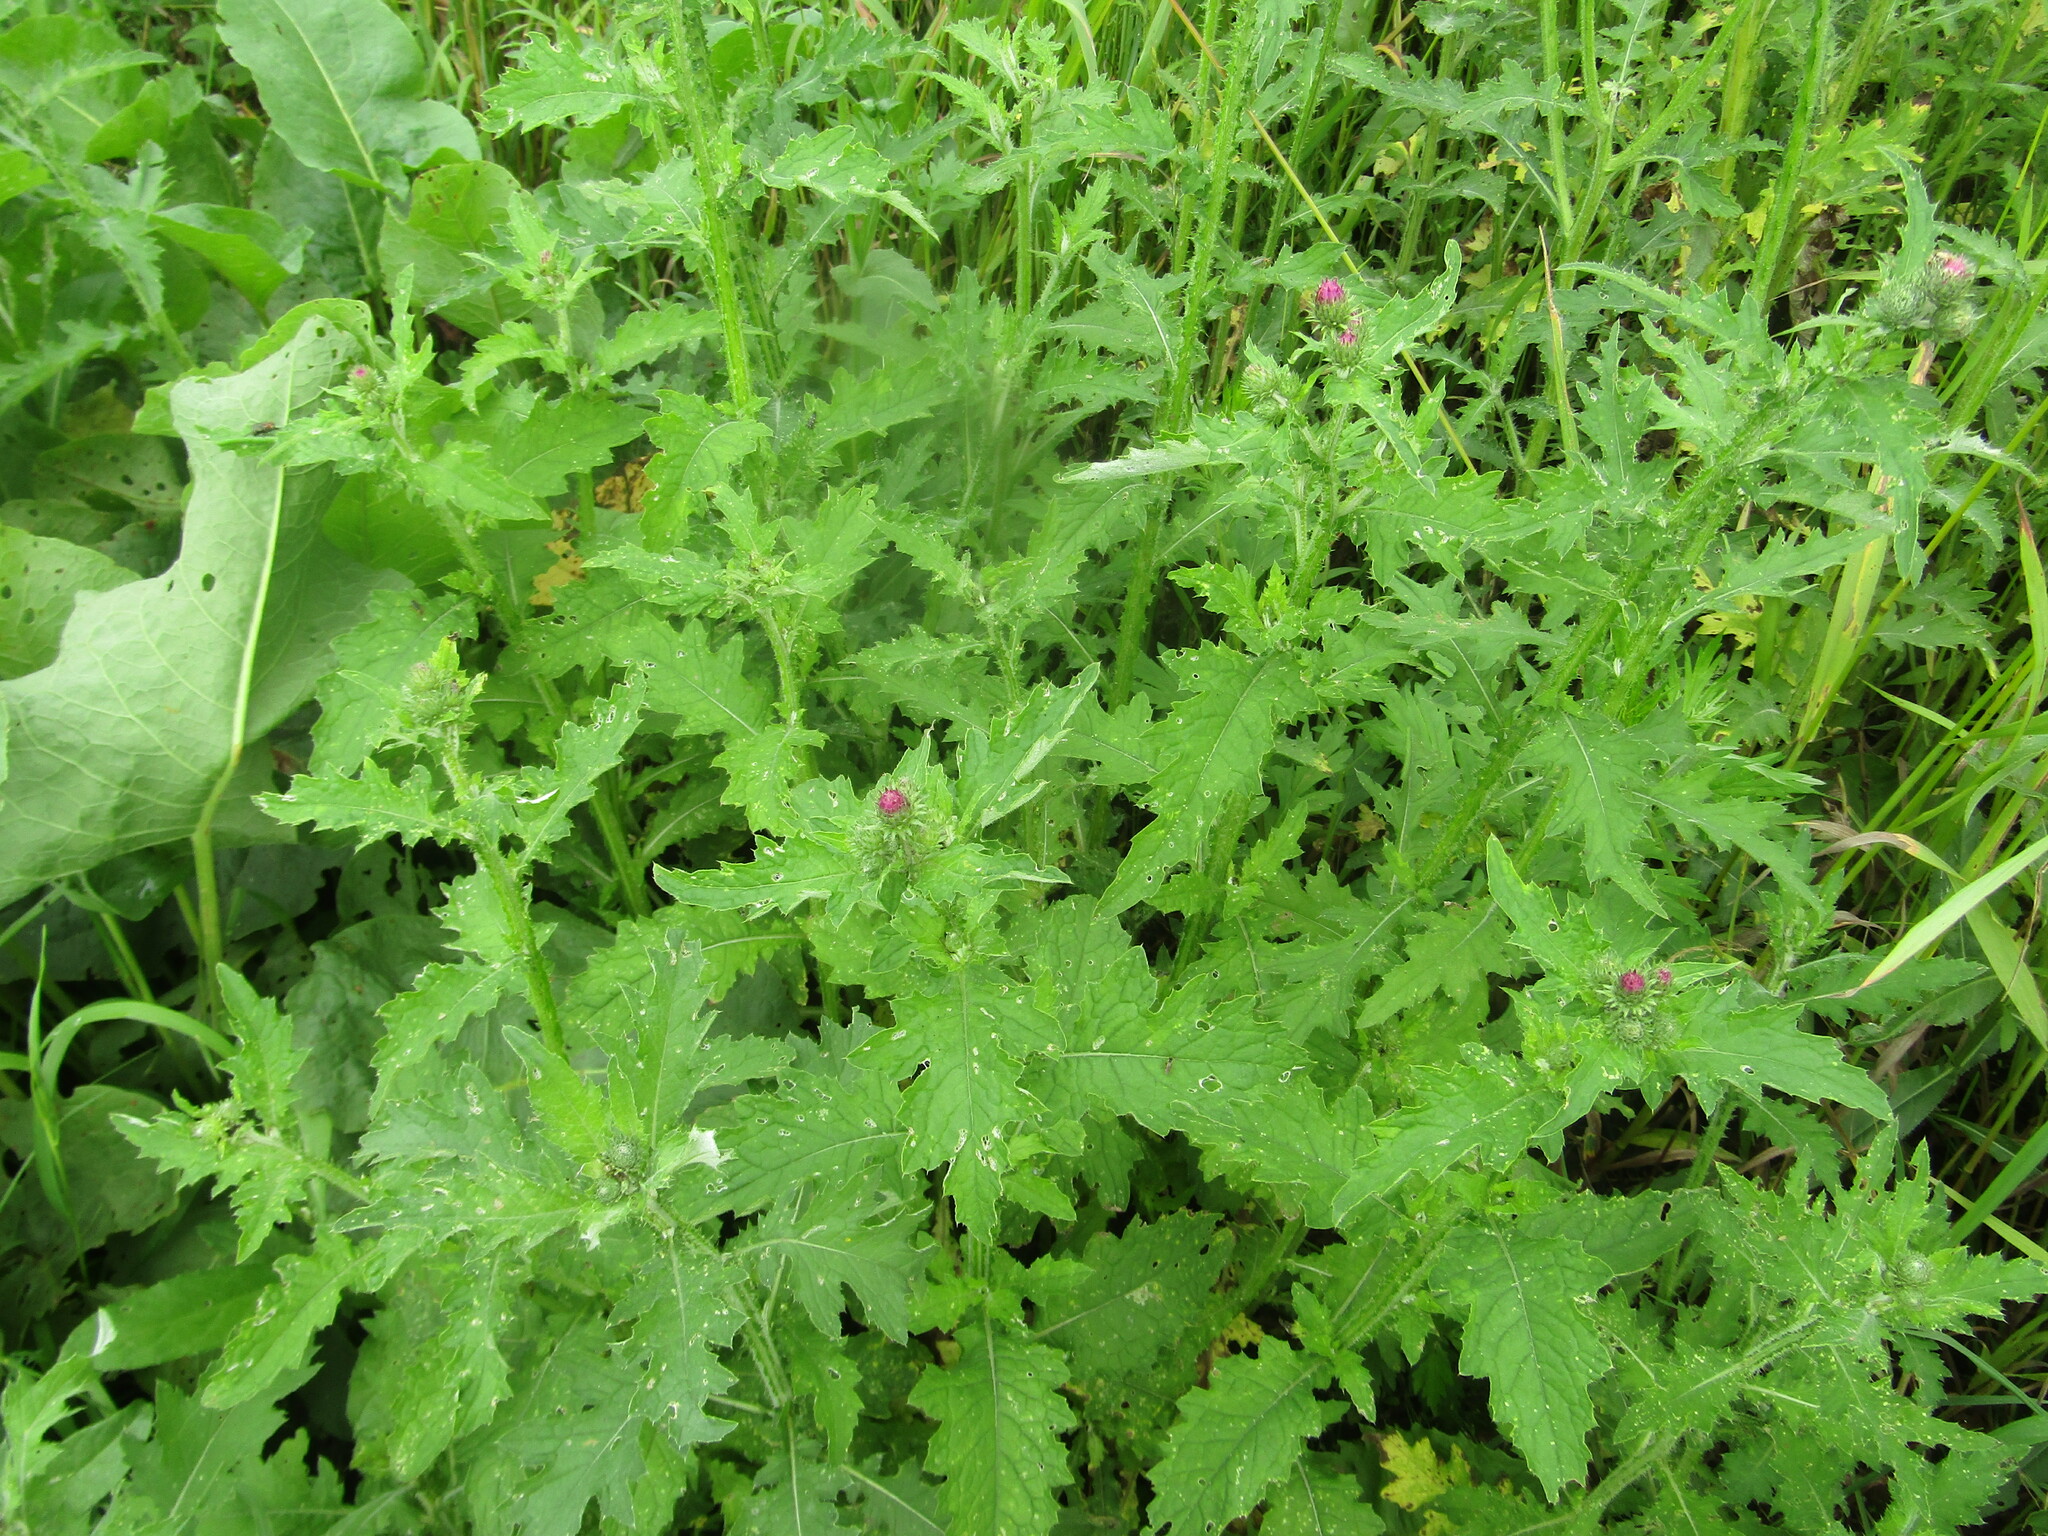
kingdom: Plantae
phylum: Tracheophyta
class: Magnoliopsida
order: Asterales
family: Asteraceae
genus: Carduus
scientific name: Carduus crispus
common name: Welted thistle
